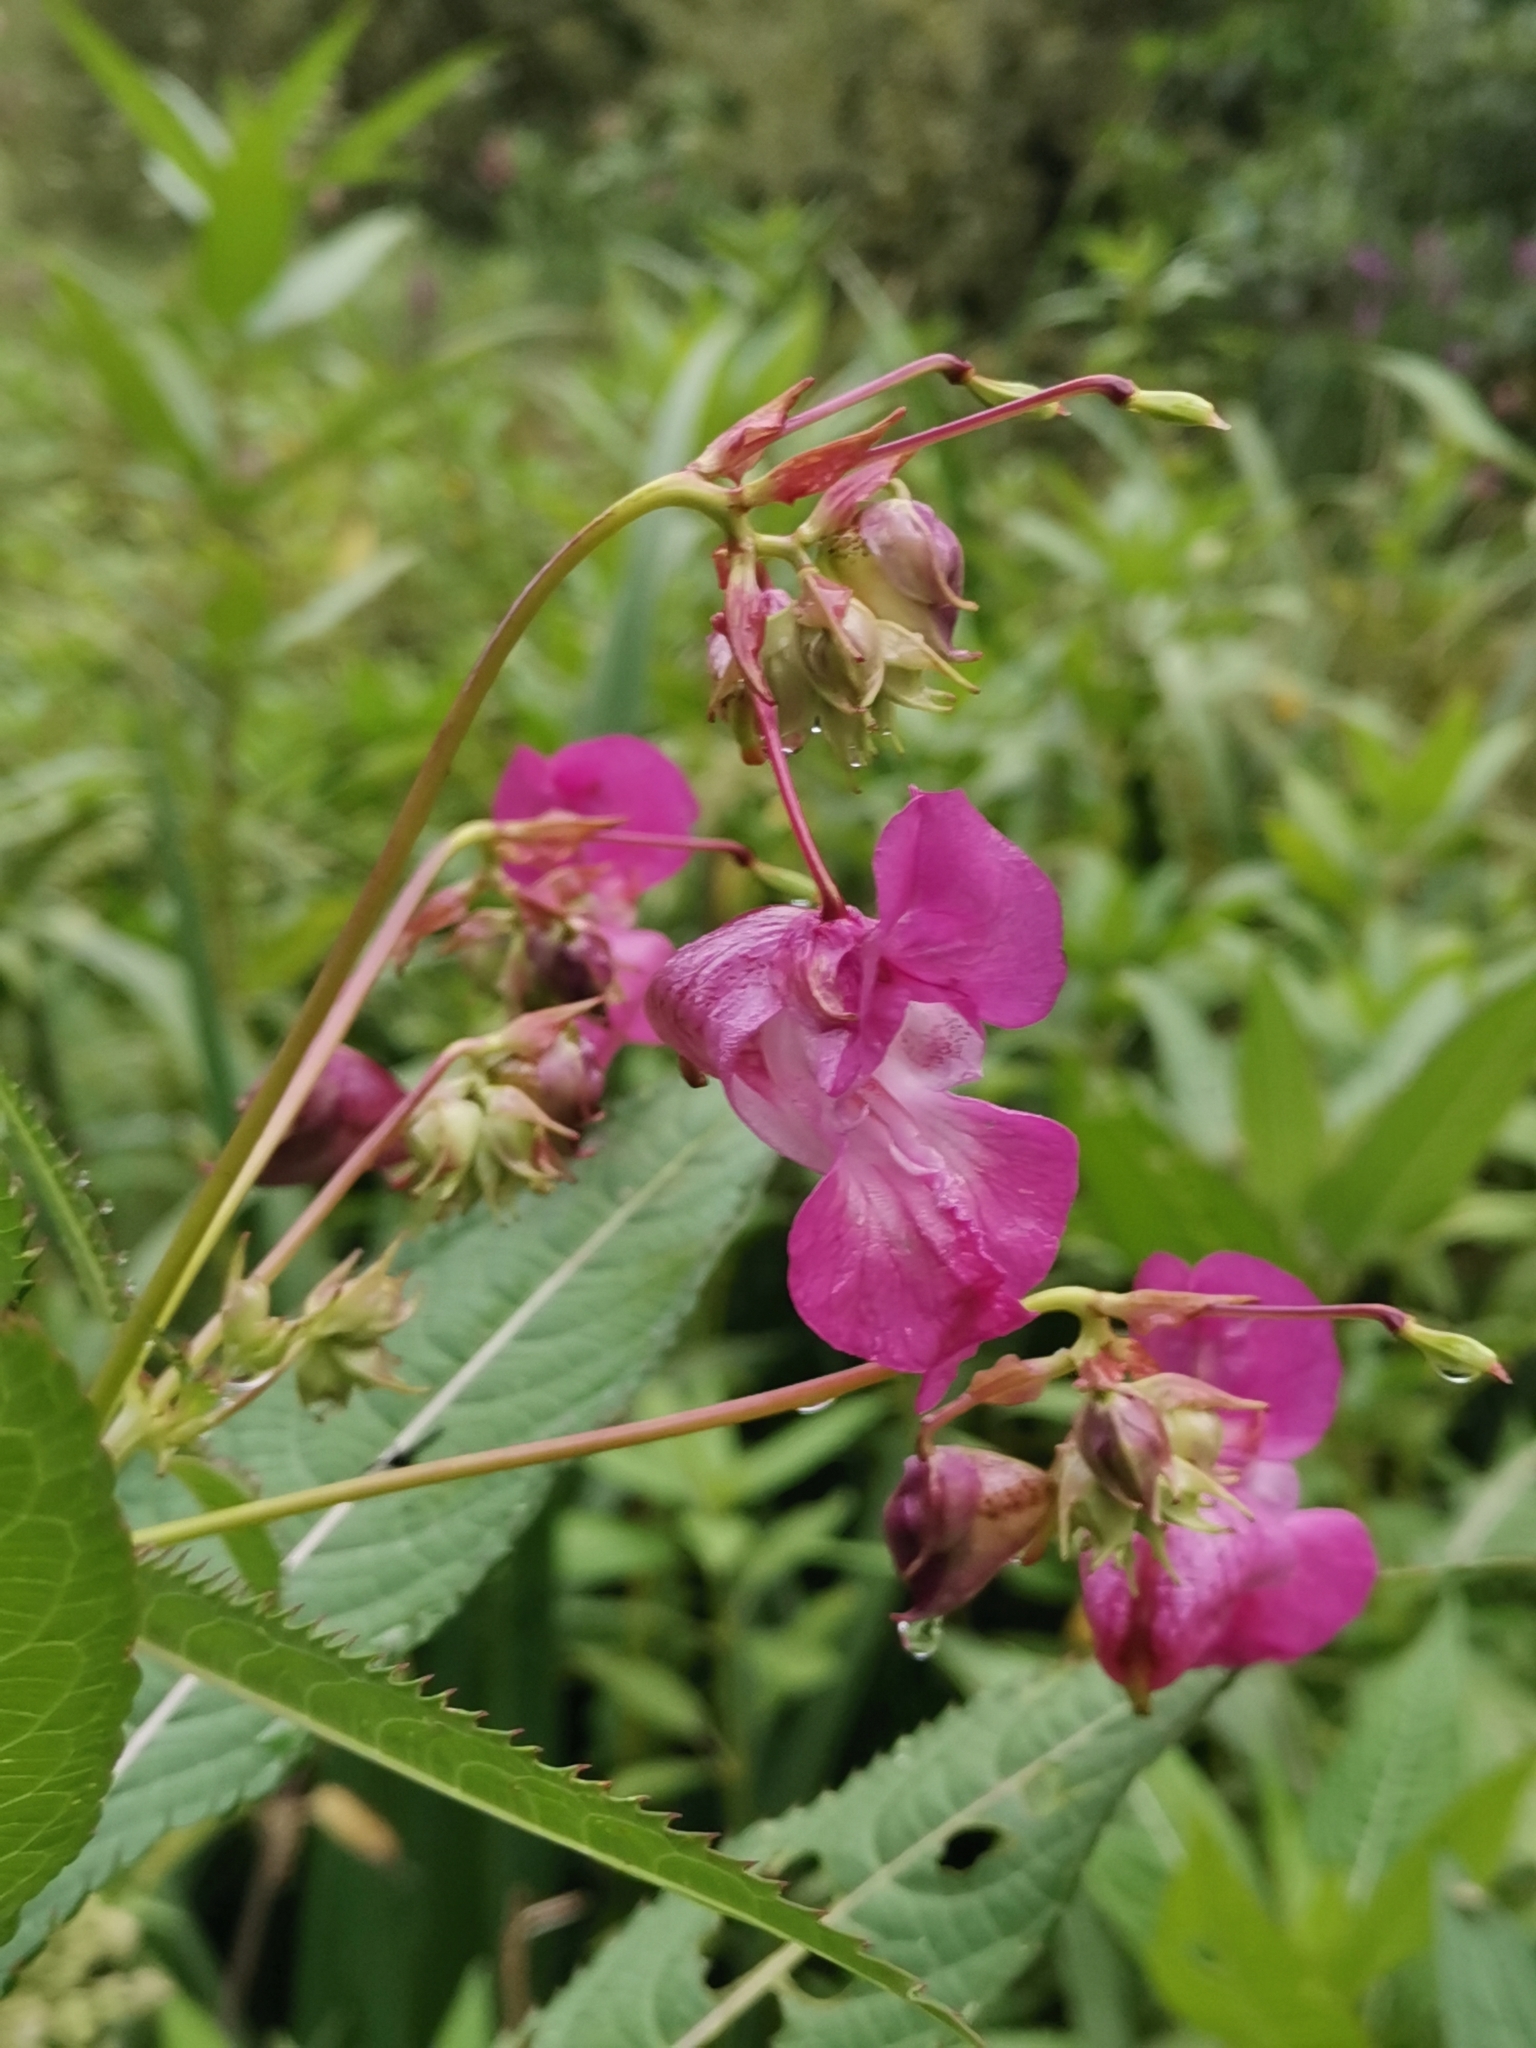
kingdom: Plantae
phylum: Tracheophyta
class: Magnoliopsida
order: Ericales
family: Balsaminaceae
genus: Impatiens
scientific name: Impatiens glandulifera
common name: Himalayan balsam
